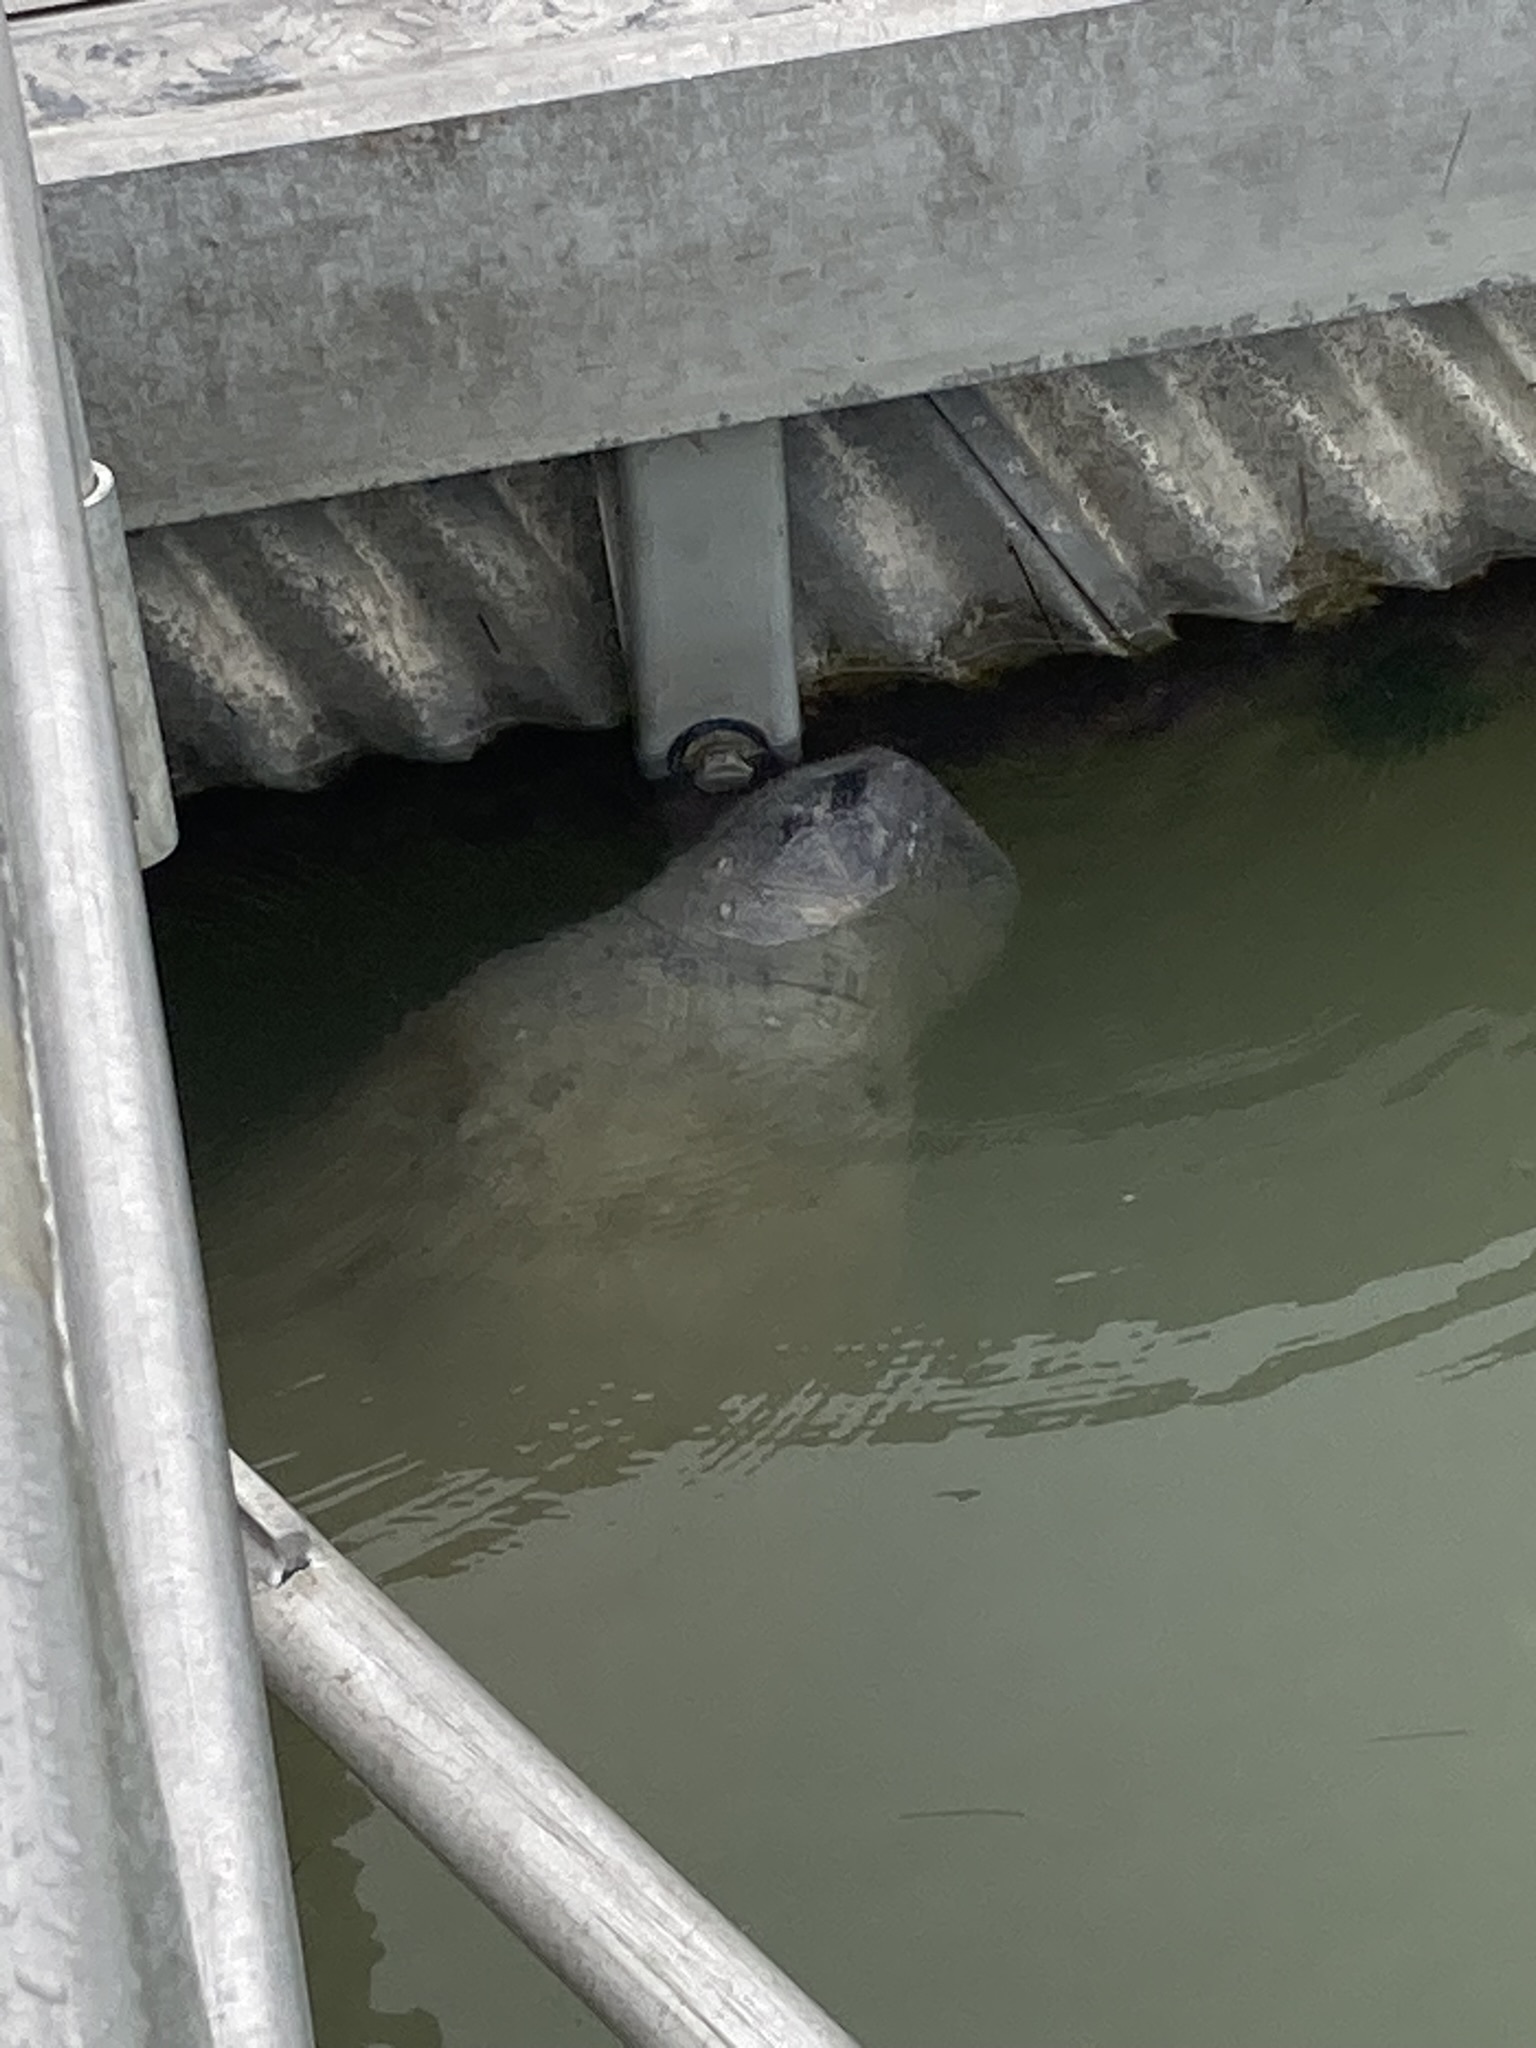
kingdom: Animalia
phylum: Chordata
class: Mammalia
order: Sirenia
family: Trichechidae
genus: Trichechus
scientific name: Trichechus manatus
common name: West indian manatee
